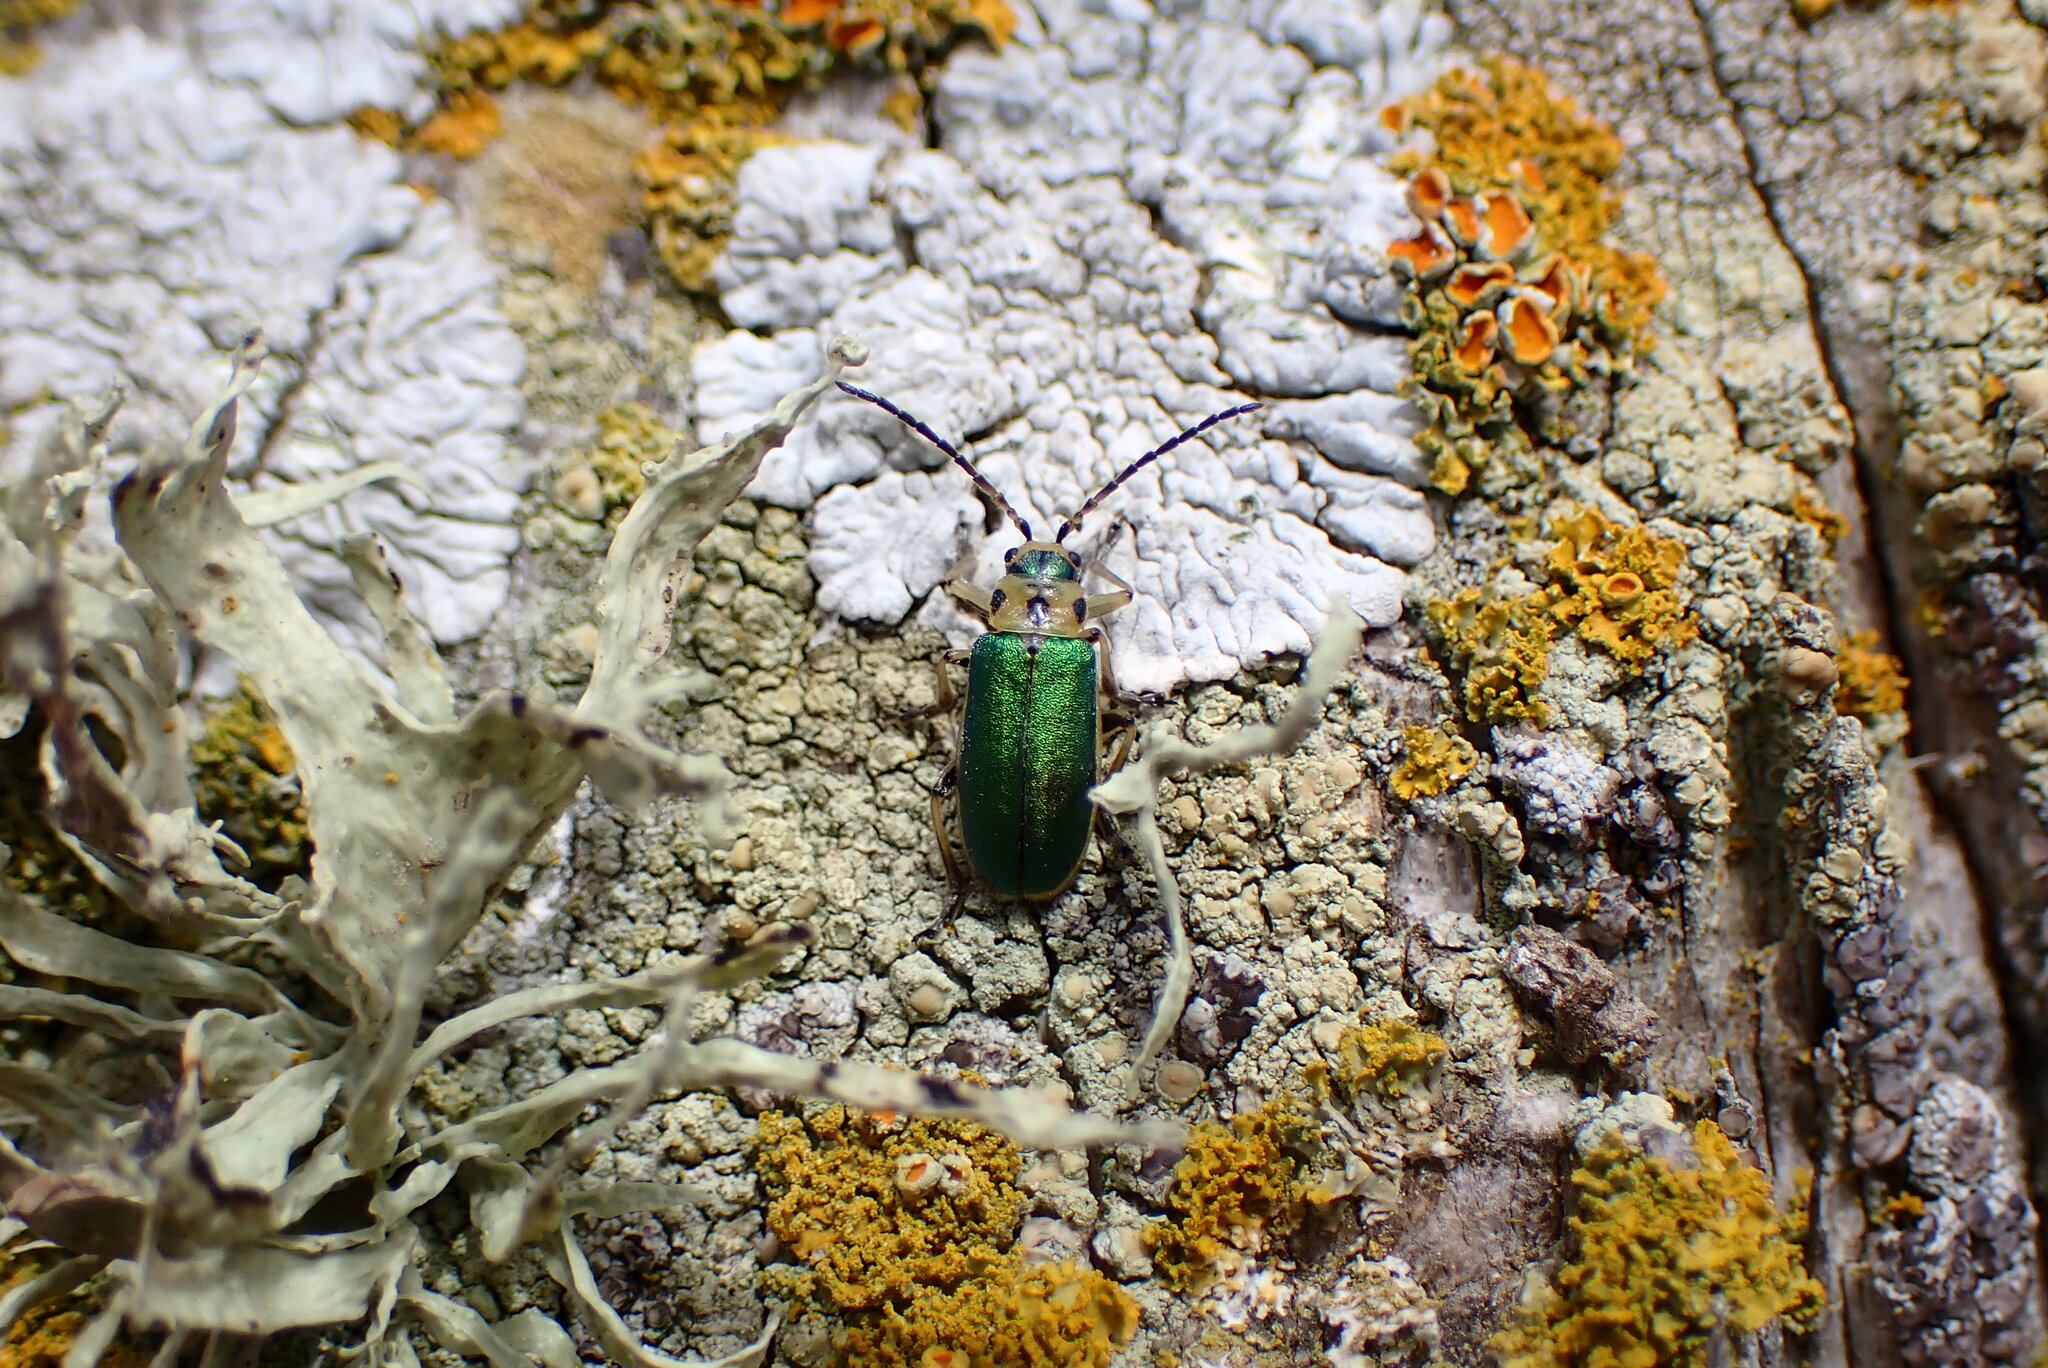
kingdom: Animalia
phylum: Arthropoda
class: Insecta
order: Coleoptera
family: Chrysomelidae
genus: Trirhabda
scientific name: Trirhabda flavolimbata
